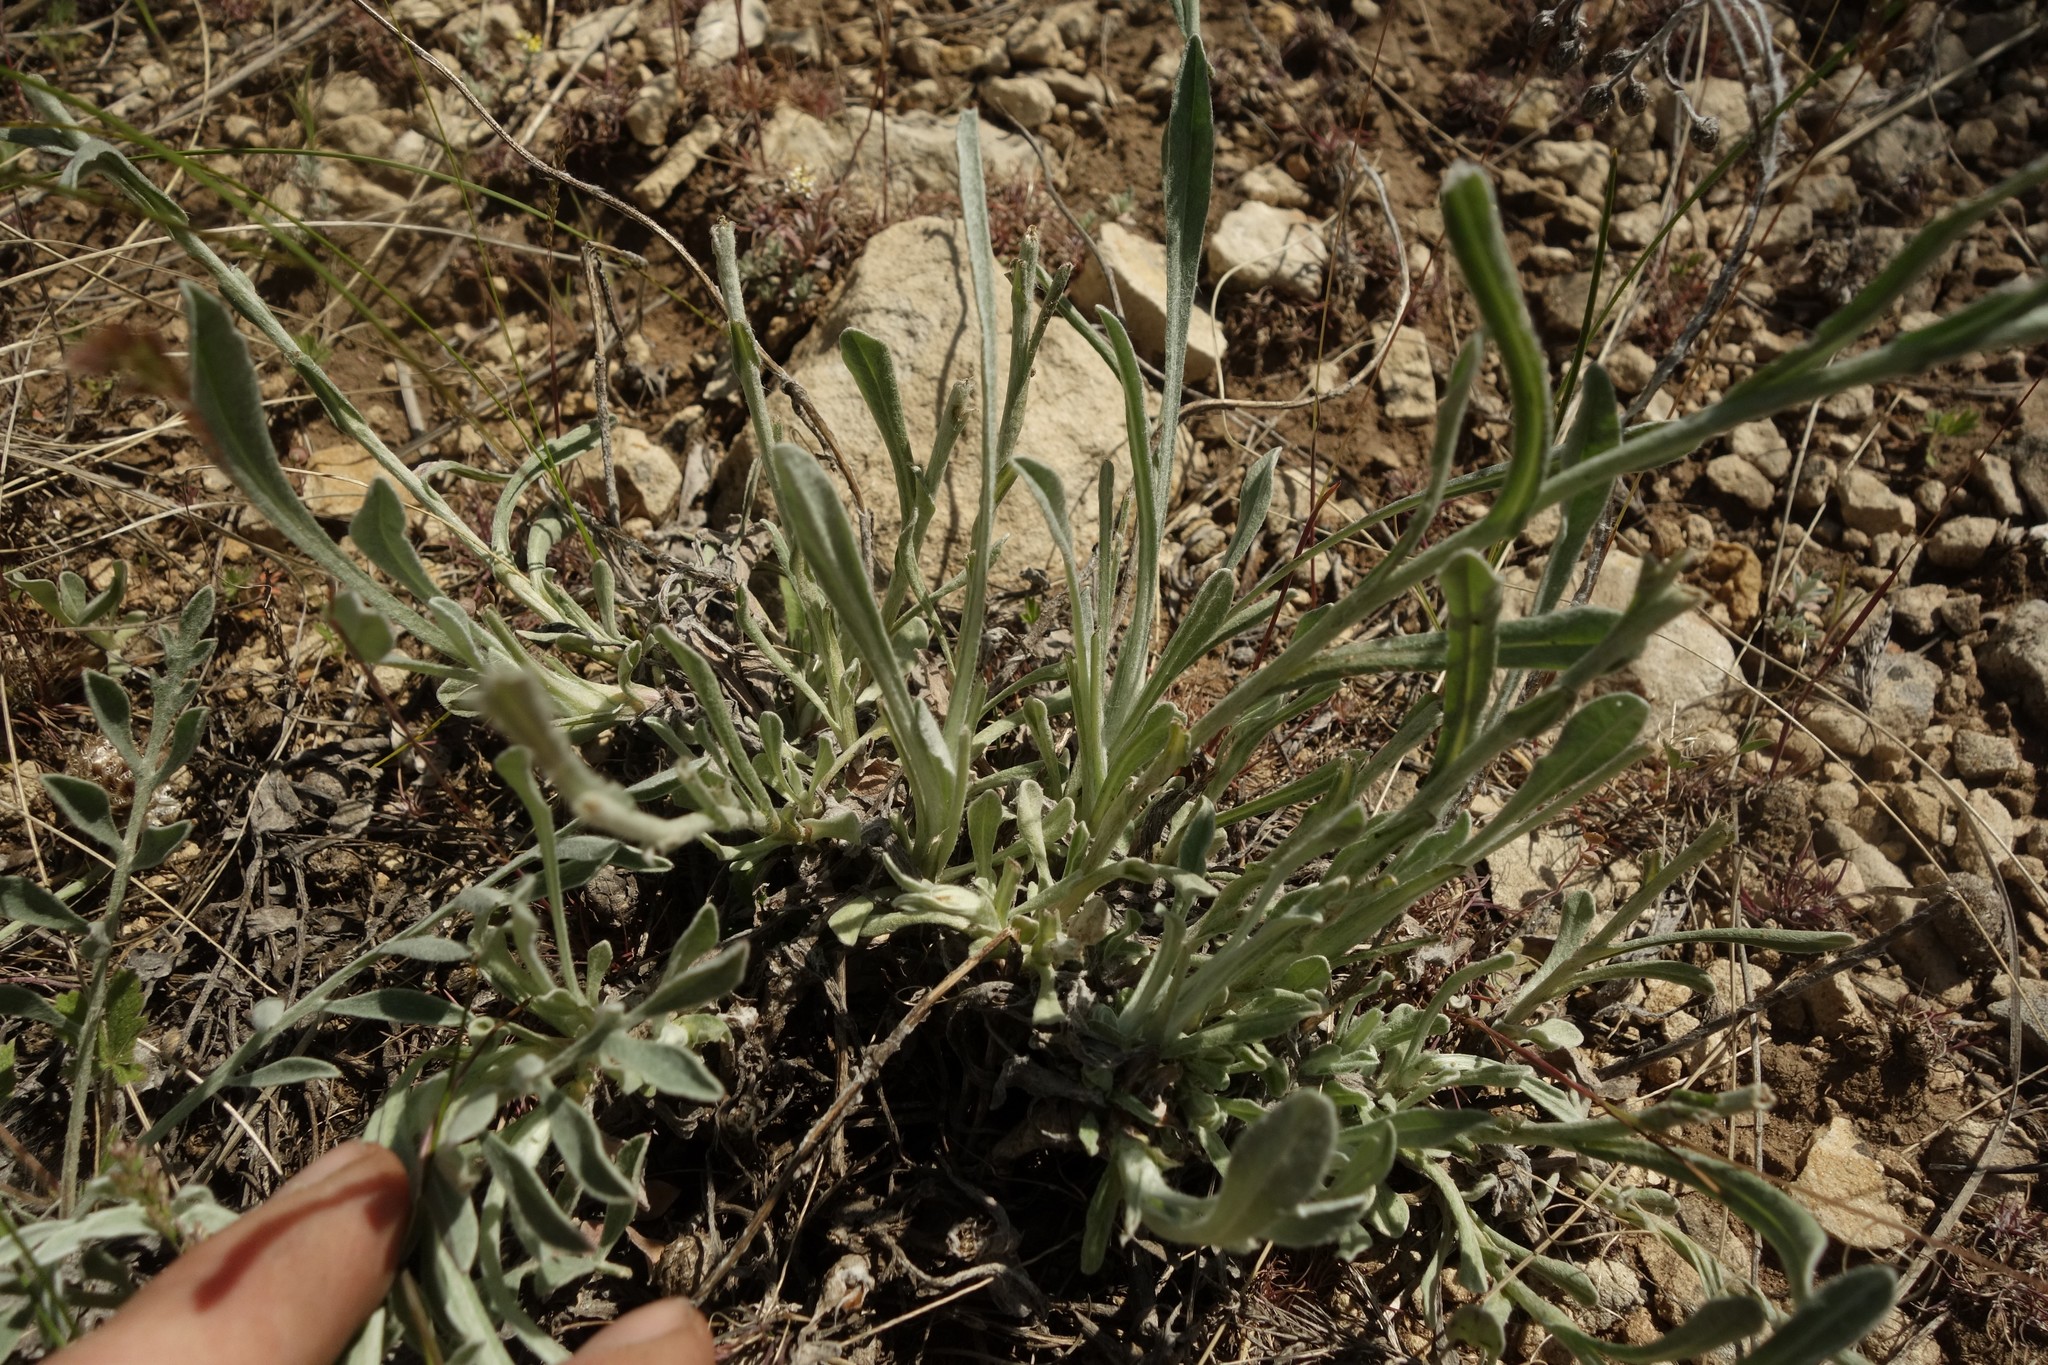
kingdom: Plantae
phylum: Tracheophyta
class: Magnoliopsida
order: Asterales
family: Asteraceae
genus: Helichrysum
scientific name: Helichrysum arenarium
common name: Strawflower
